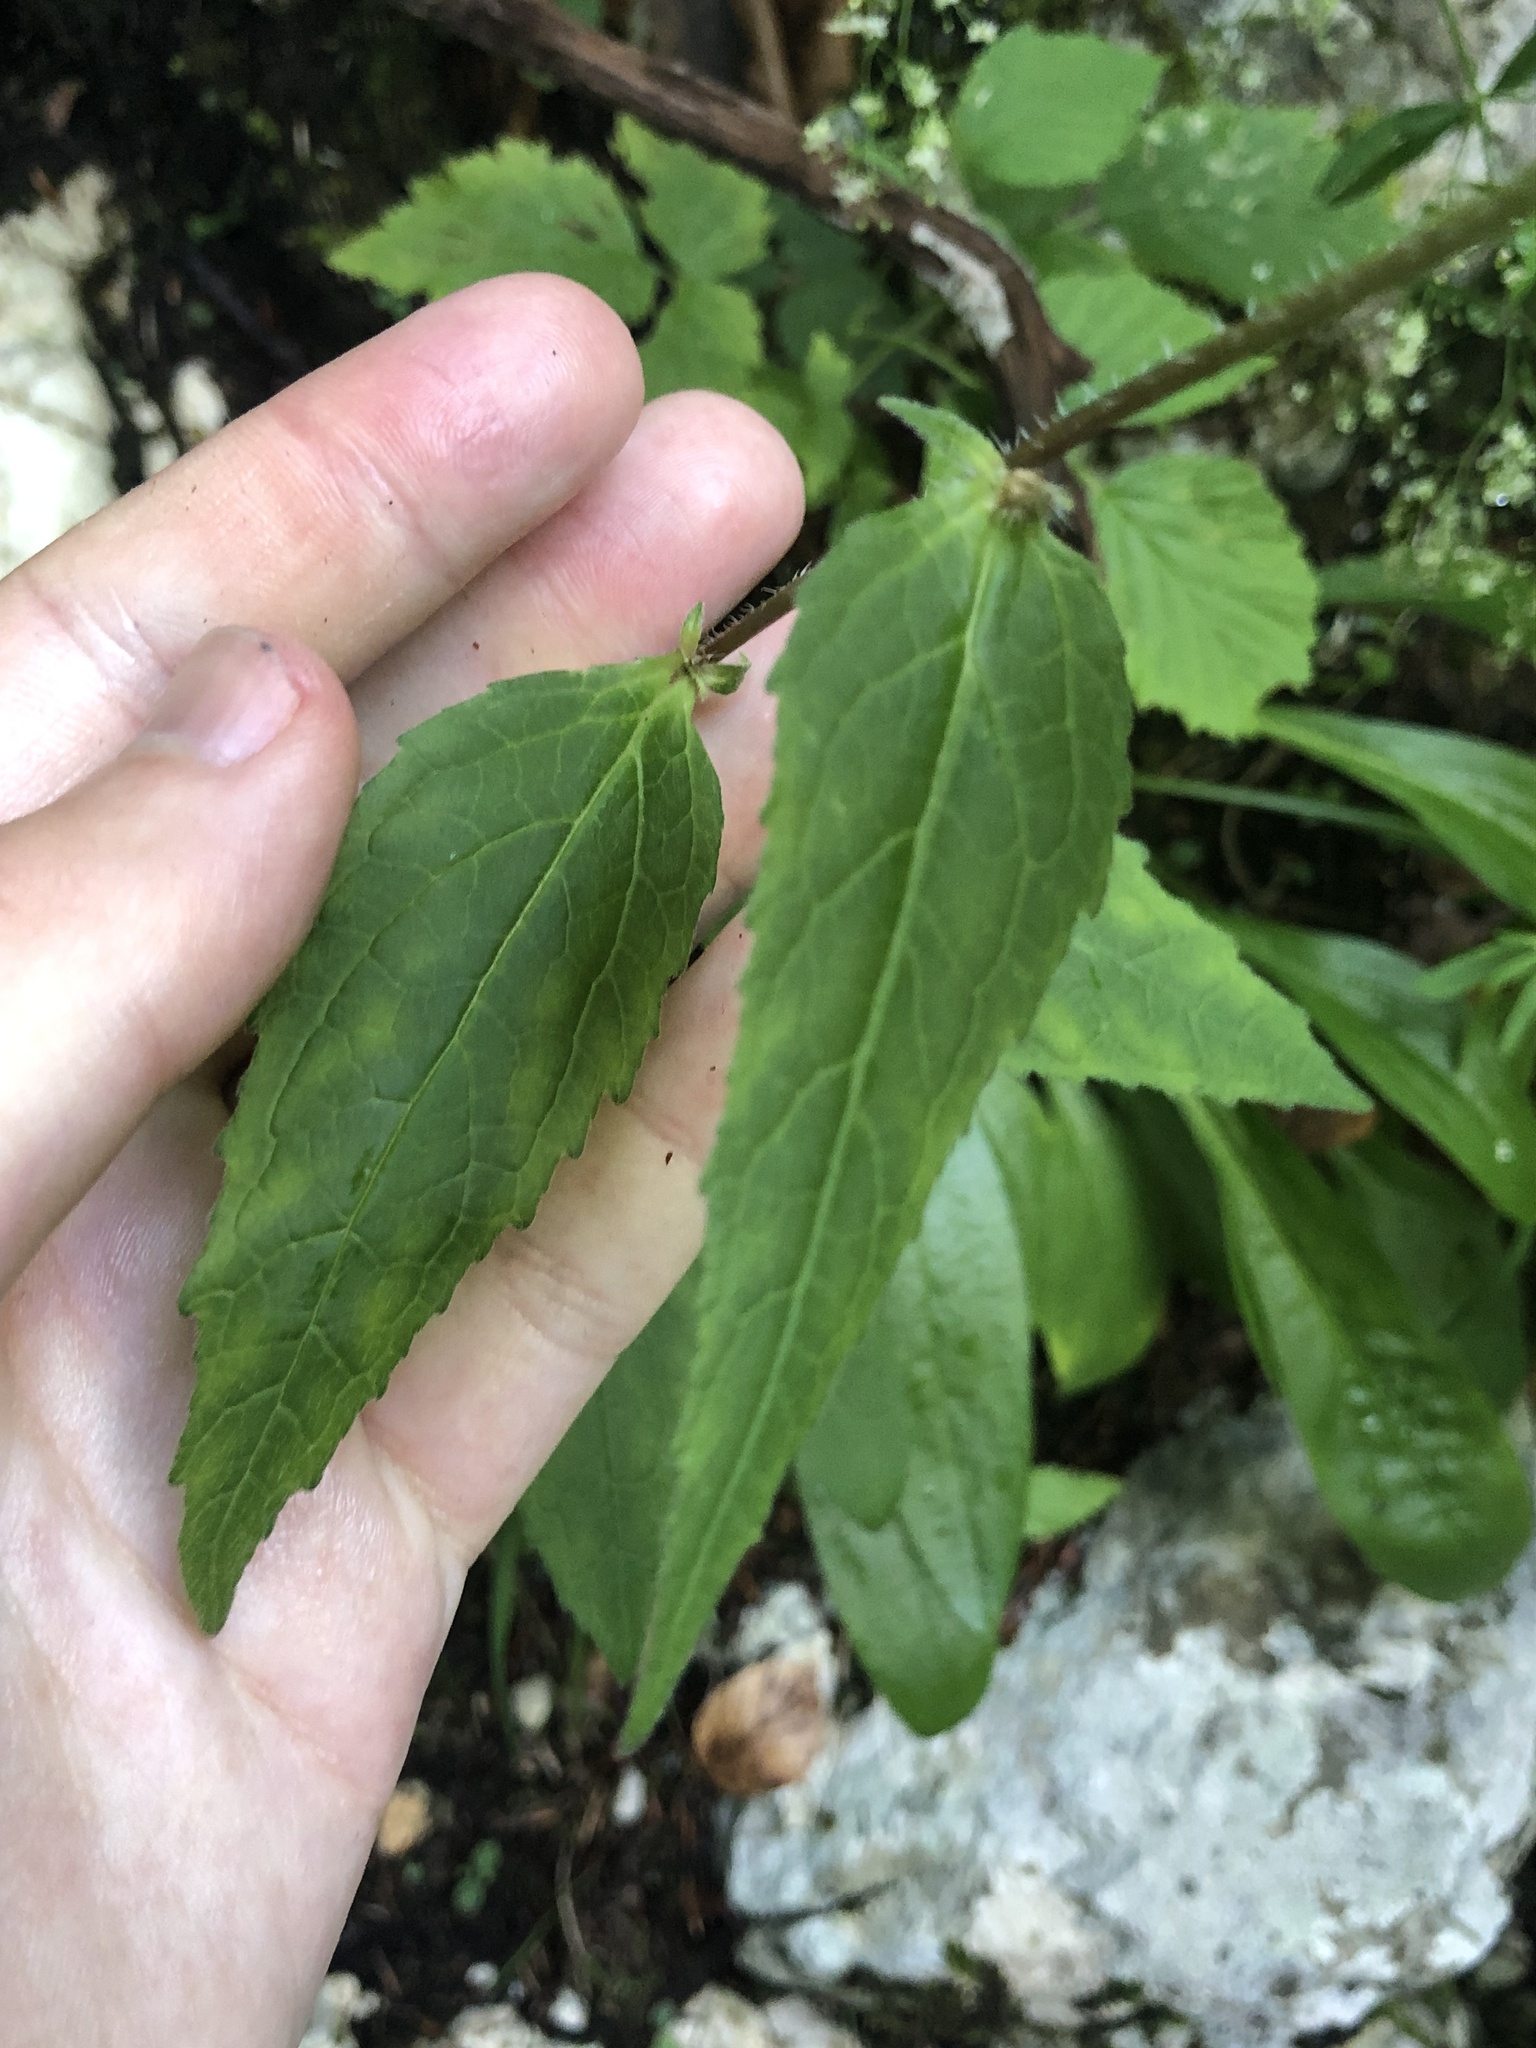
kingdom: Plantae
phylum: Tracheophyta
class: Magnoliopsida
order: Asterales
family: Campanulaceae
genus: Campanula
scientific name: Campanula trachelium
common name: Nettle-leaved bellflower
